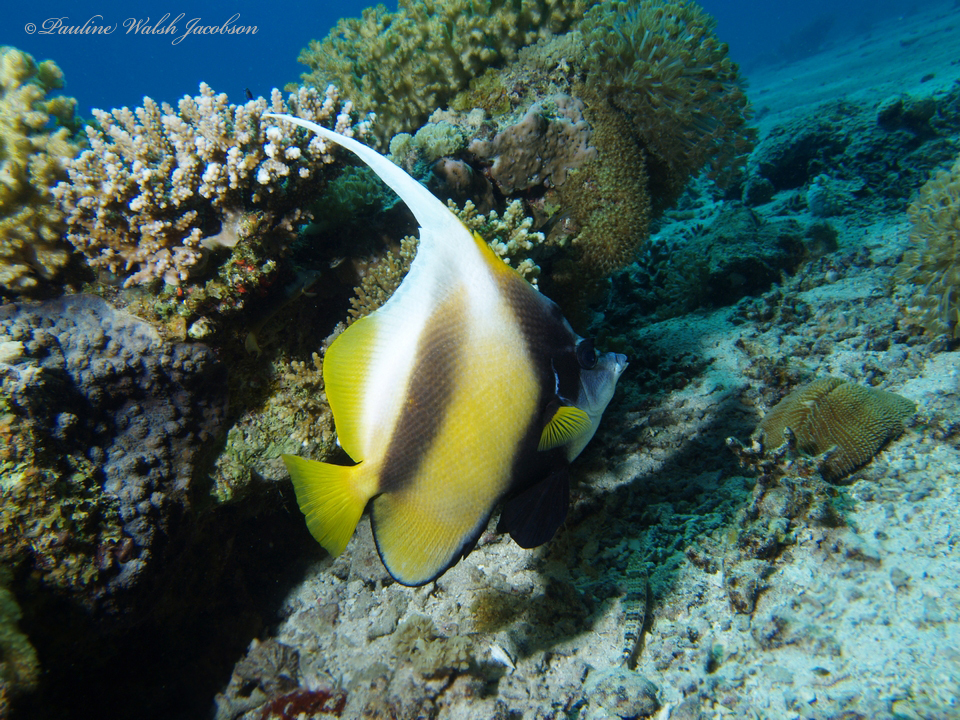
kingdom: Animalia
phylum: Chordata
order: Perciformes
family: Chaetodontidae
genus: Heniochus
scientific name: Heniochus intermedius
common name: Red sea bannerfish
